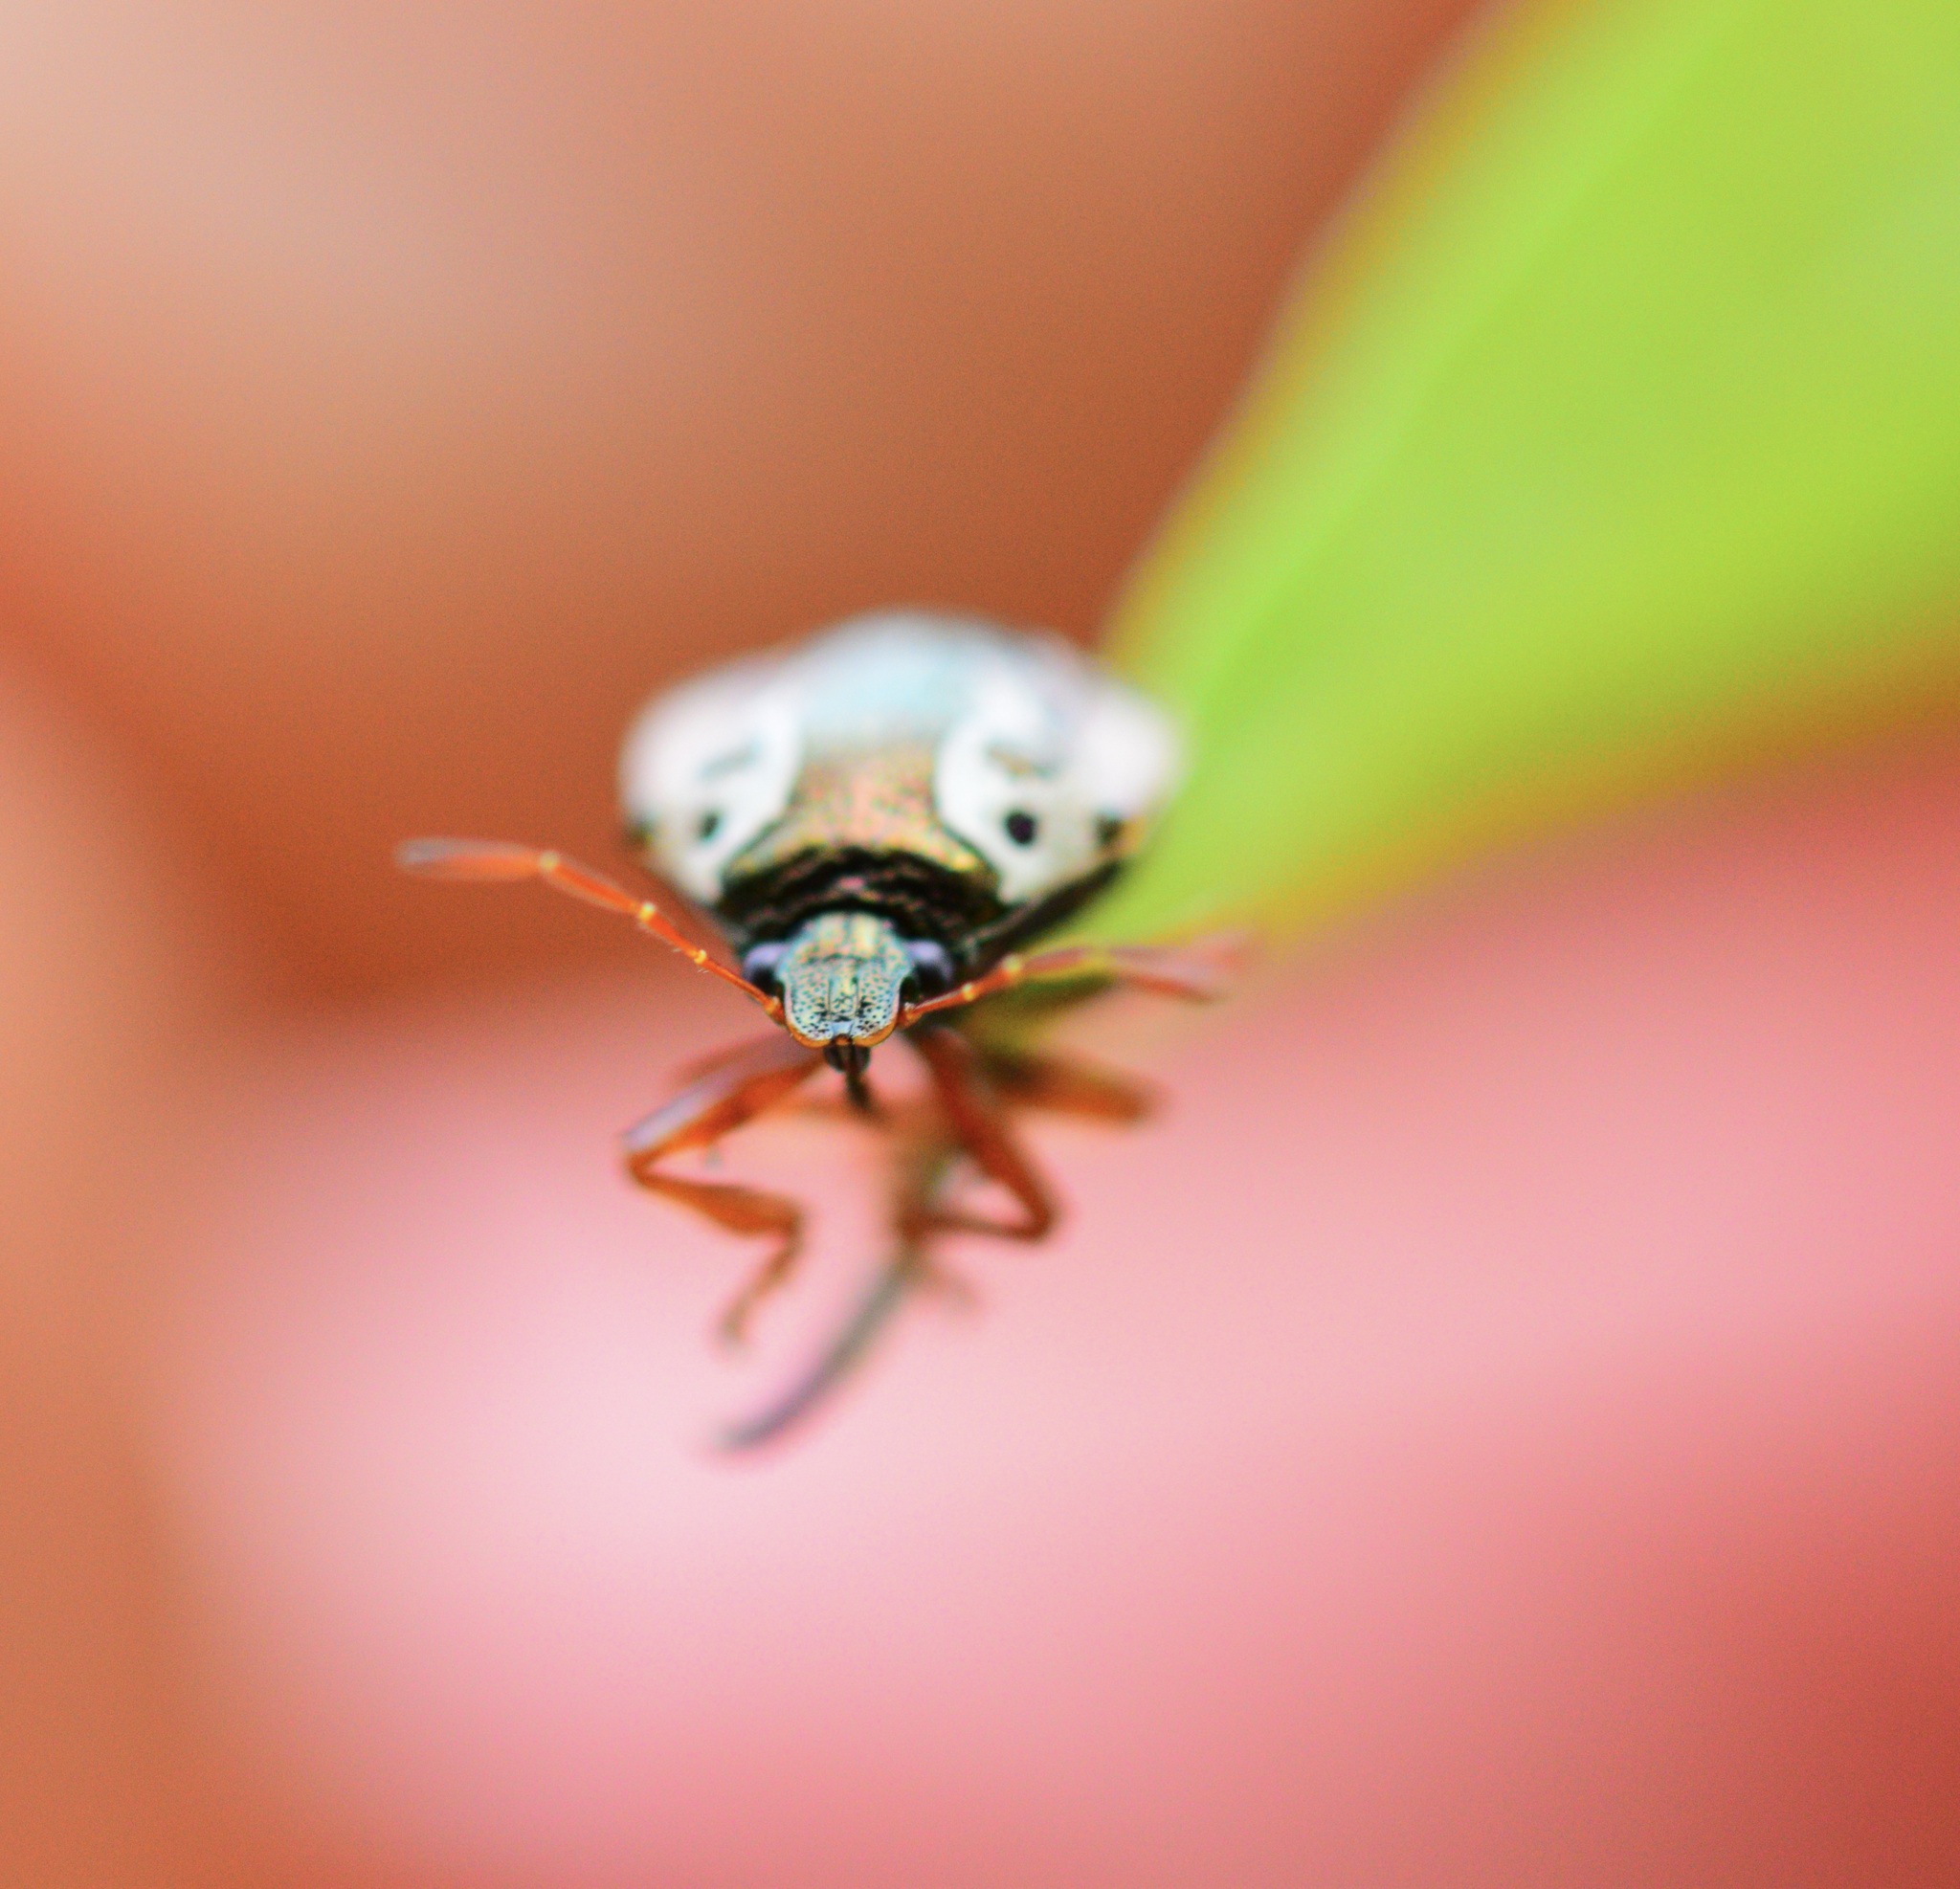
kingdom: Animalia
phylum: Arthropoda
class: Insecta
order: Hemiptera
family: Pentatomidae
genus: Stiretrus
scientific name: Stiretrus anchorago
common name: Anchor stink bug
